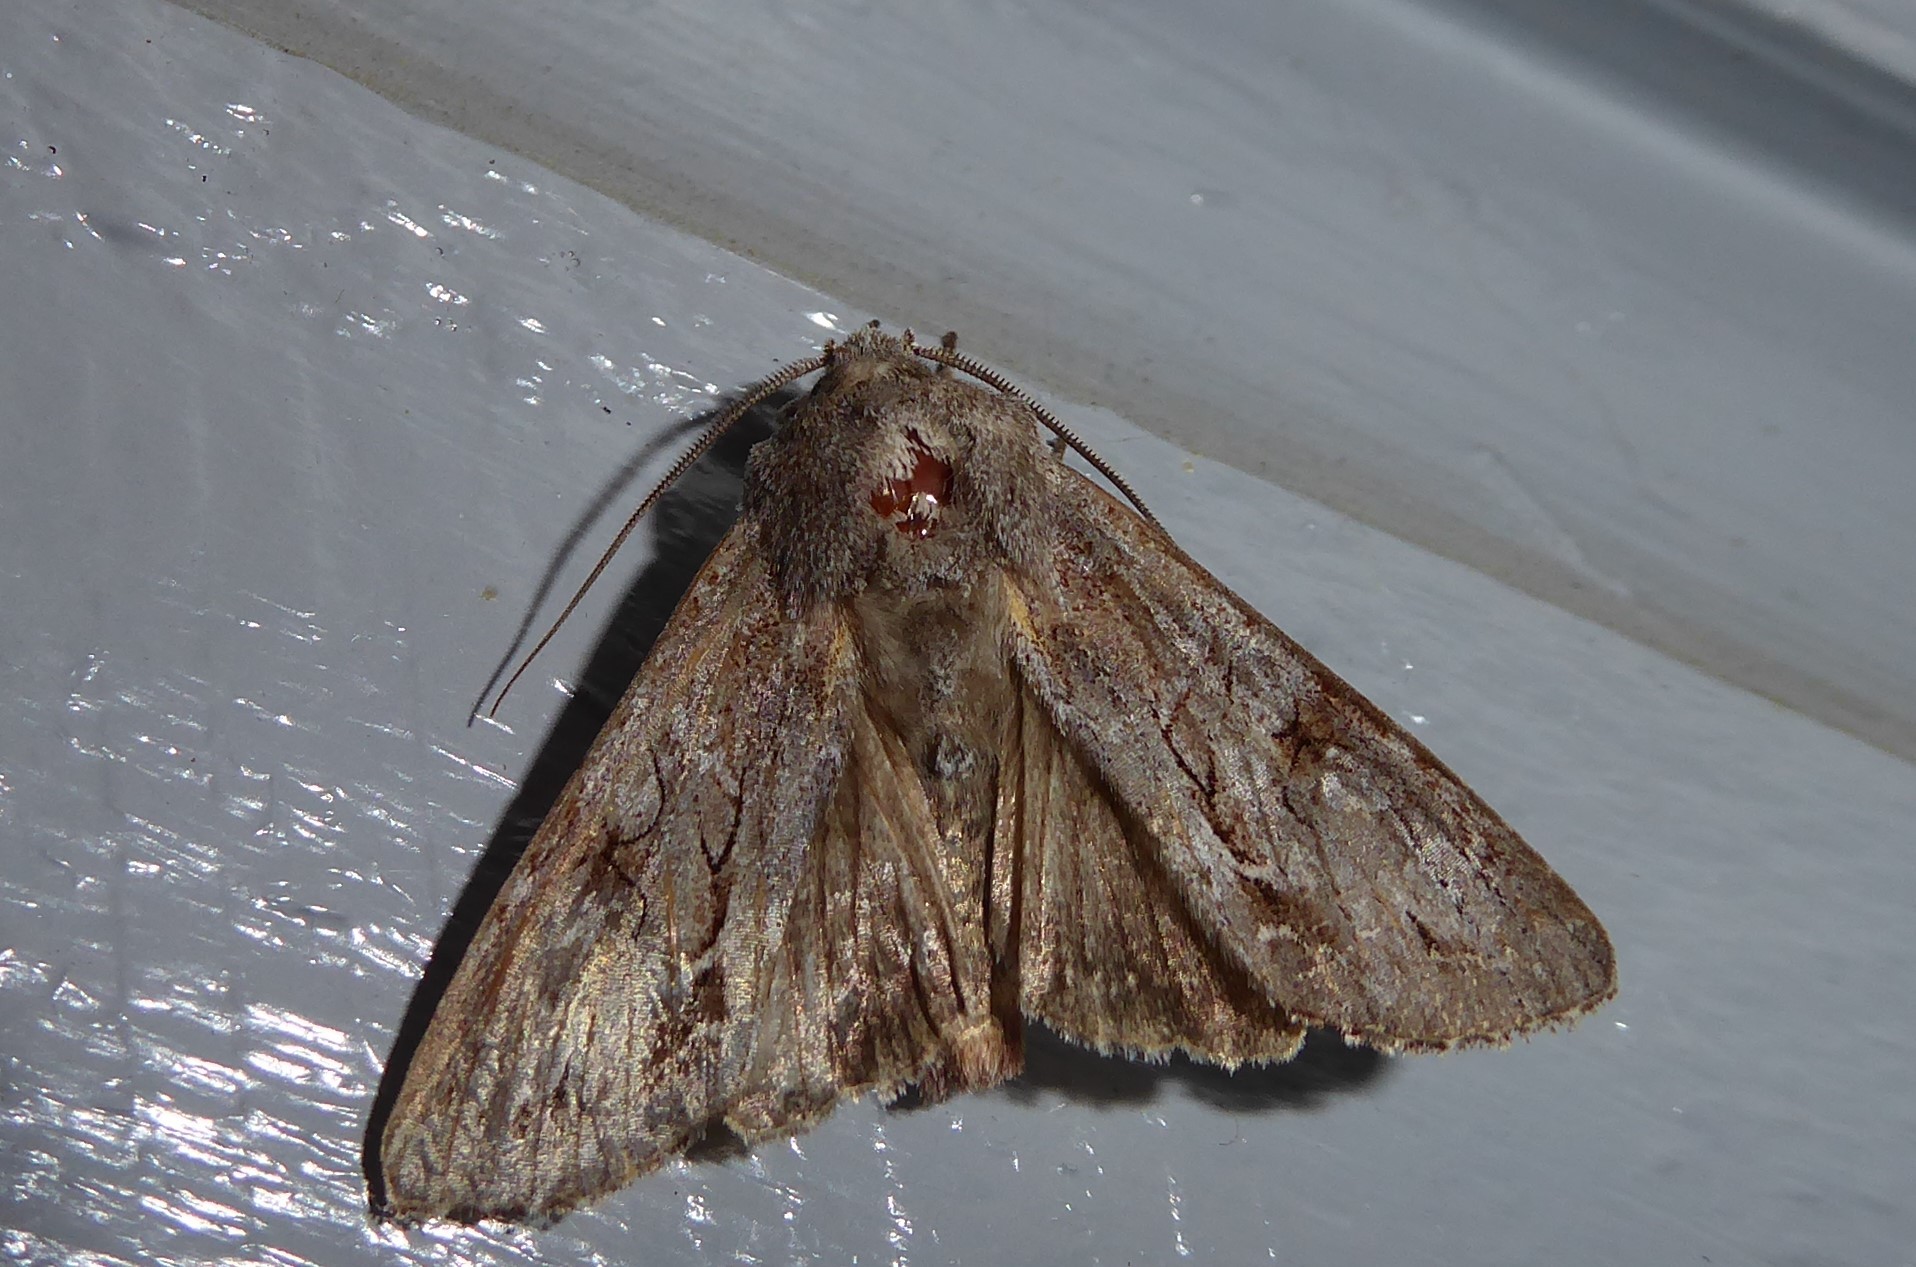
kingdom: Animalia
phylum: Arthropoda
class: Insecta
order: Lepidoptera
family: Noctuidae
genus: Ichneutica
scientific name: Ichneutica
